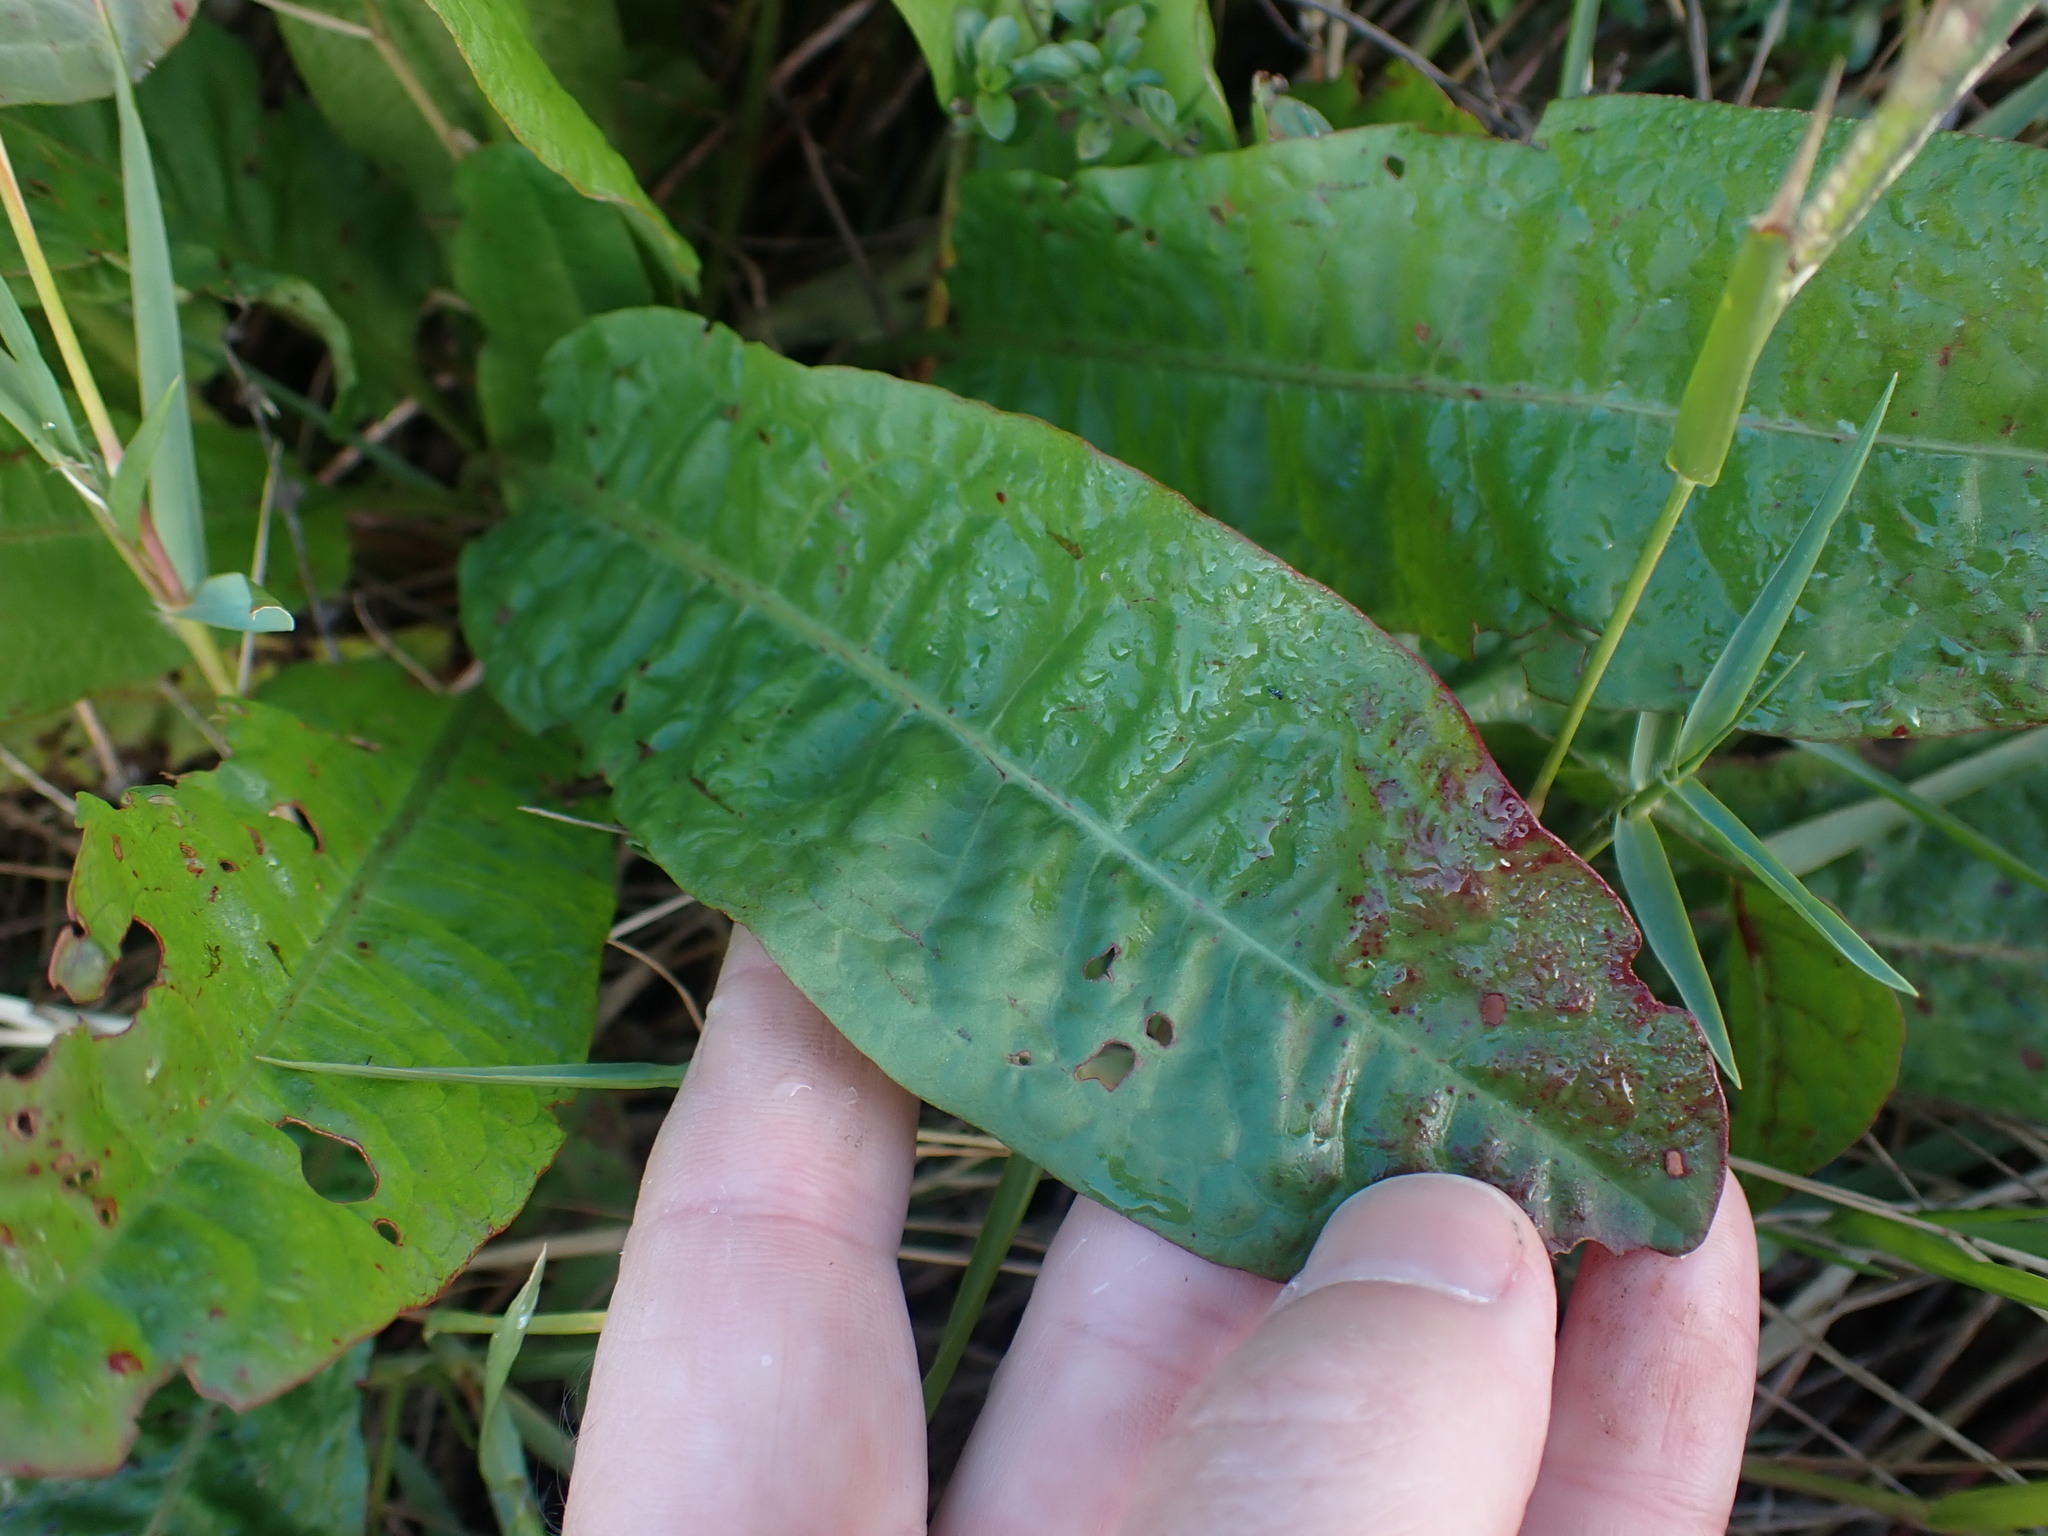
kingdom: Plantae
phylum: Tracheophyta
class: Magnoliopsida
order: Caryophyllales
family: Polygonaceae
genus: Rumex
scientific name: Rumex obtusifolius
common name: Bitter dock
